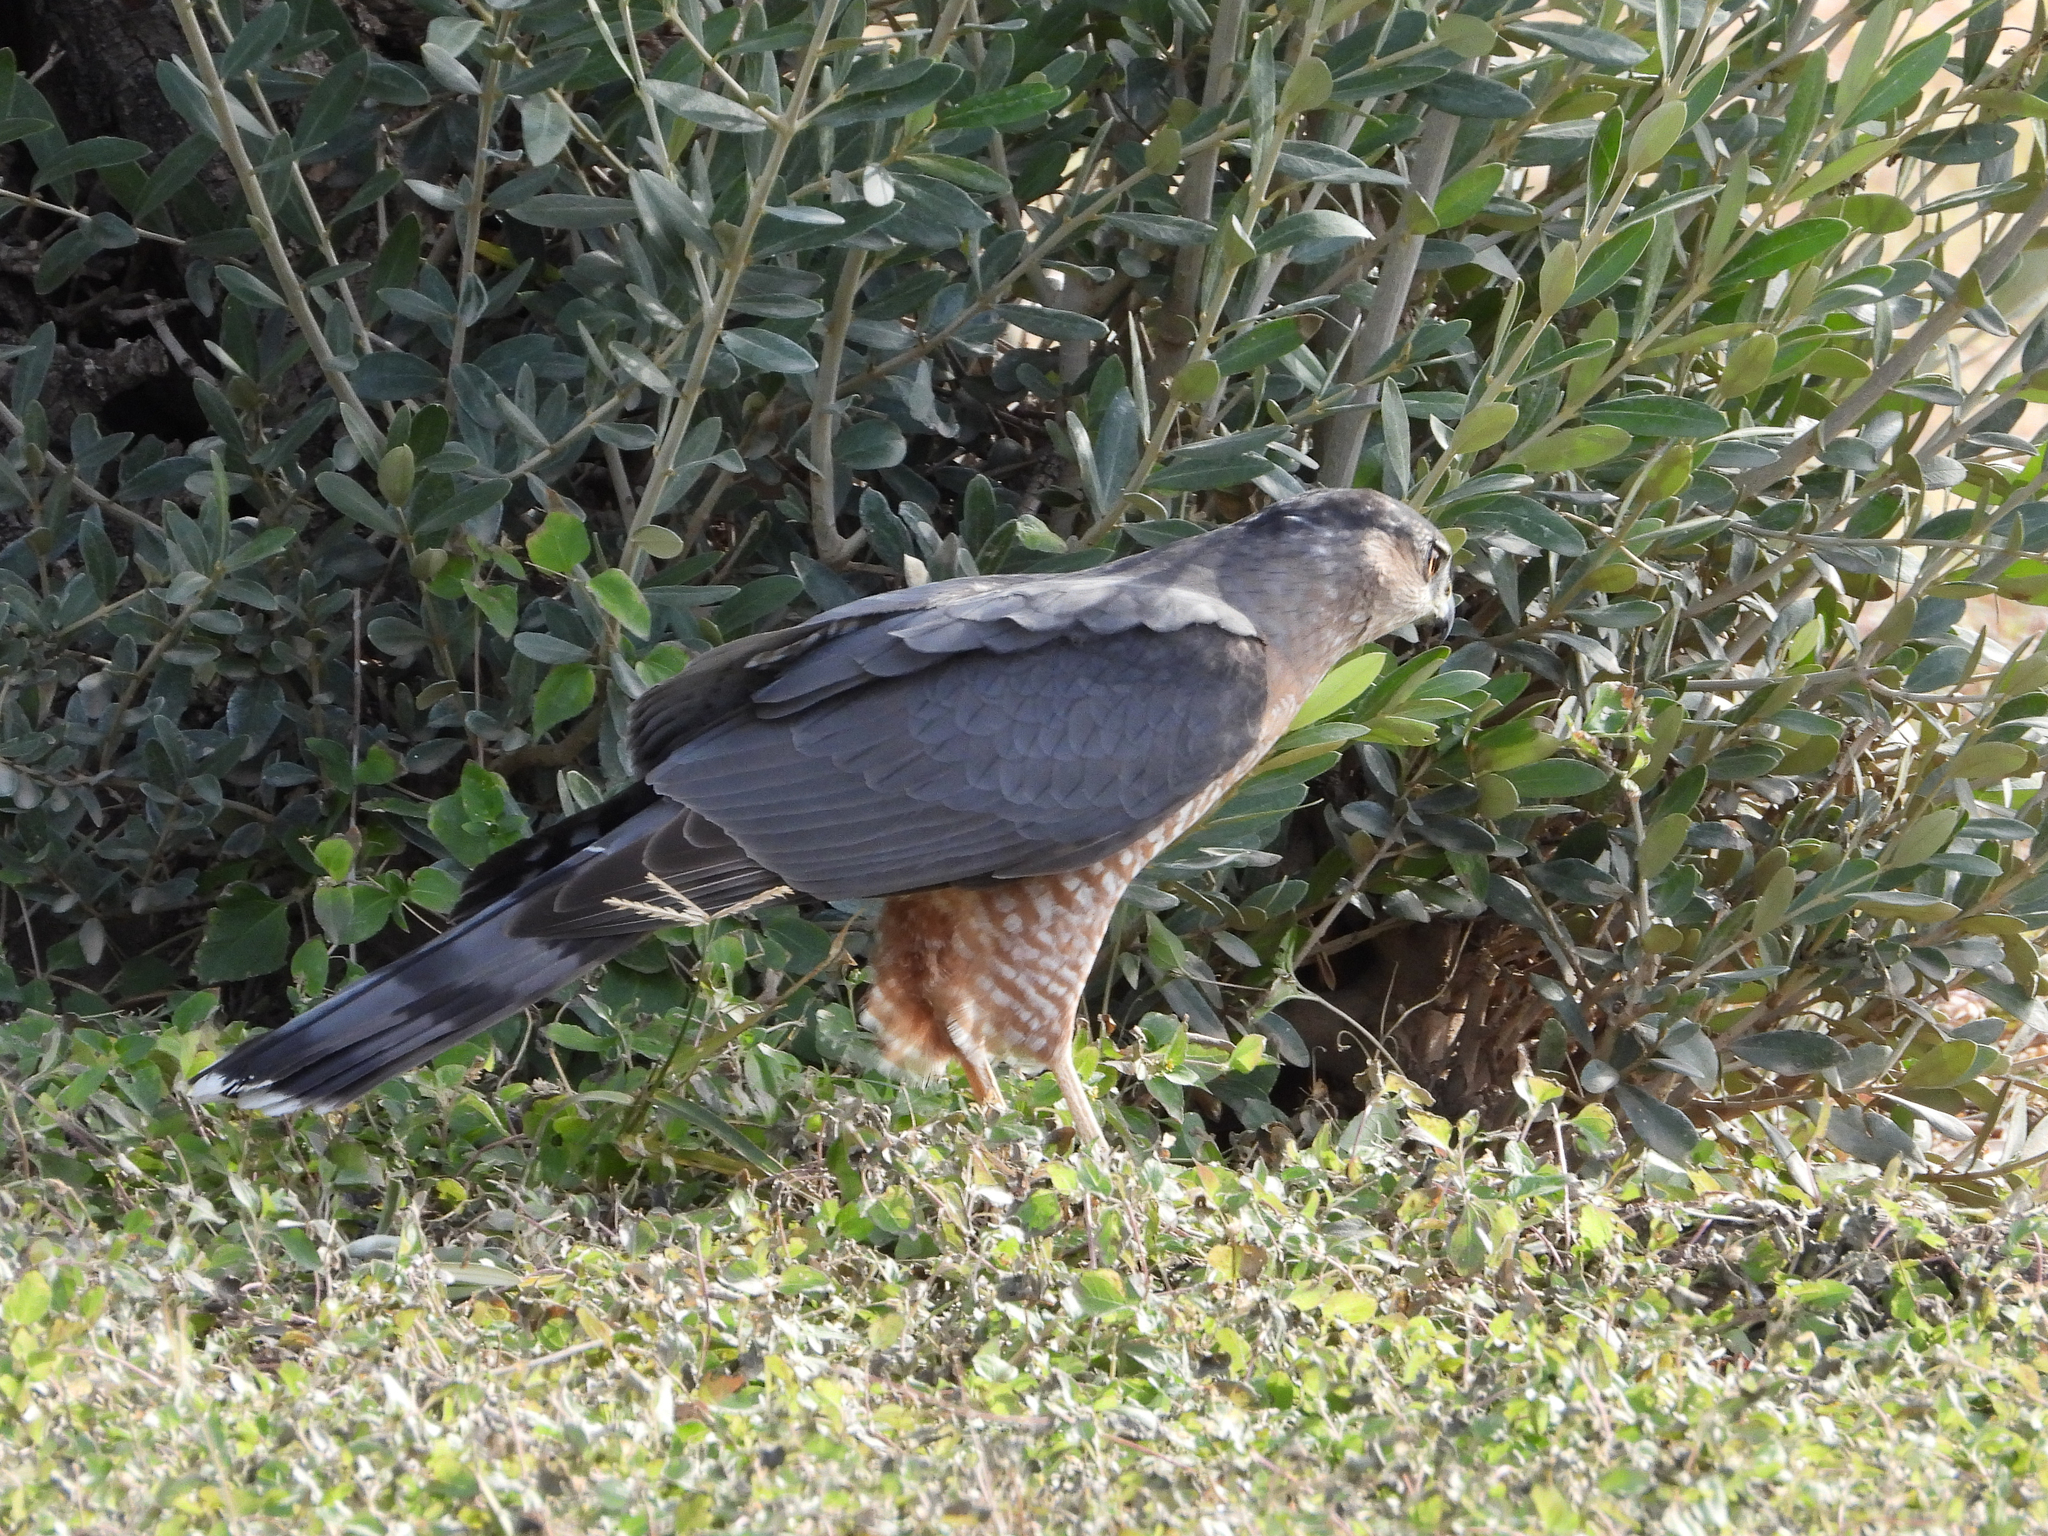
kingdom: Animalia
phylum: Chordata
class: Aves
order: Accipitriformes
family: Accipitridae
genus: Accipiter
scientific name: Accipiter cooperii
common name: Cooper's hawk
